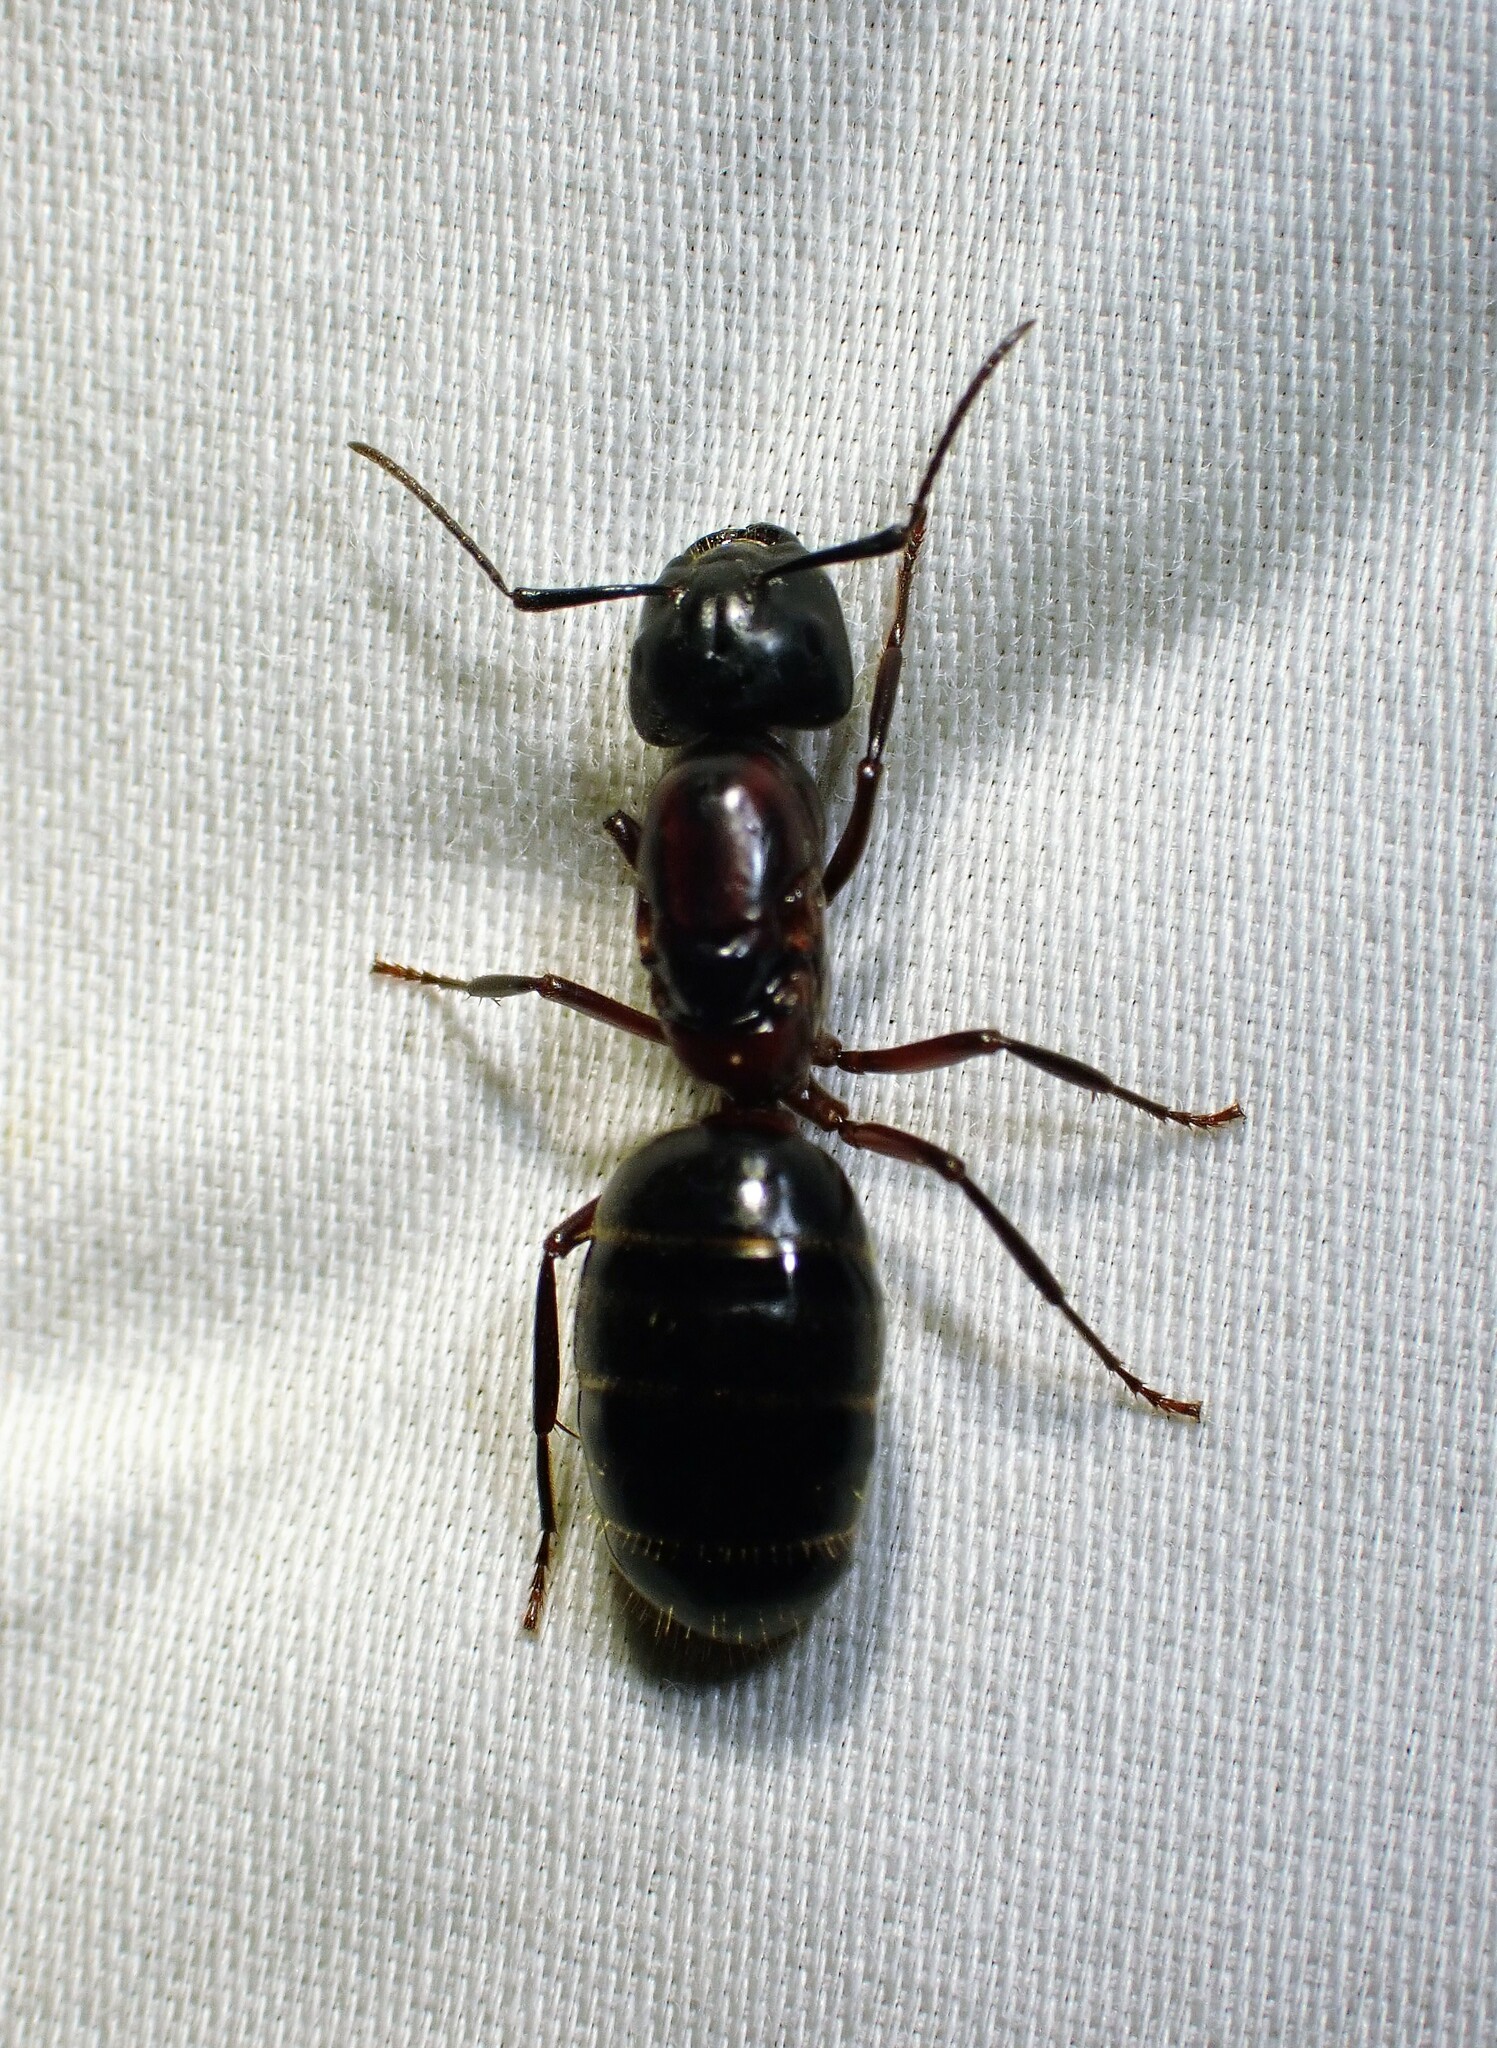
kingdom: Animalia
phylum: Arthropoda
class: Insecta
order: Hymenoptera
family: Formicidae
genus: Camponotus
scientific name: Camponotus novaeboracensis
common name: New york carpenter ant
